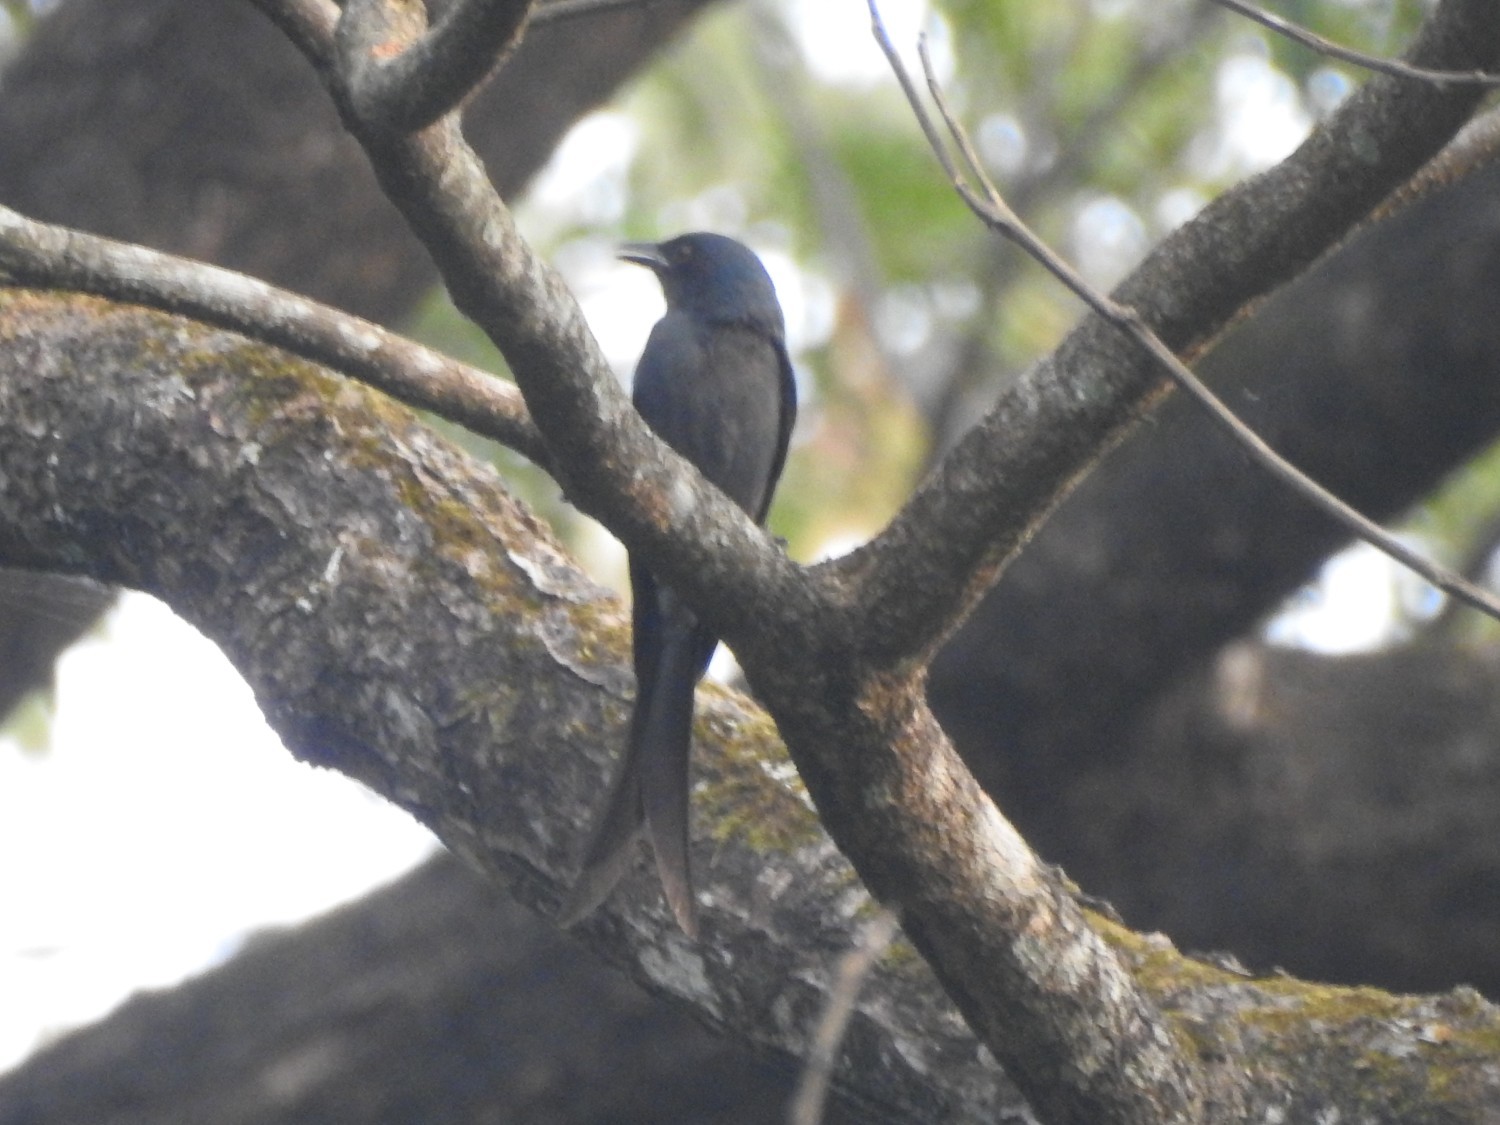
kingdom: Animalia
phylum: Chordata
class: Aves
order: Passeriformes
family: Dicruridae
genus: Dicrurus
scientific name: Dicrurus leucophaeus
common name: Ashy drongo
